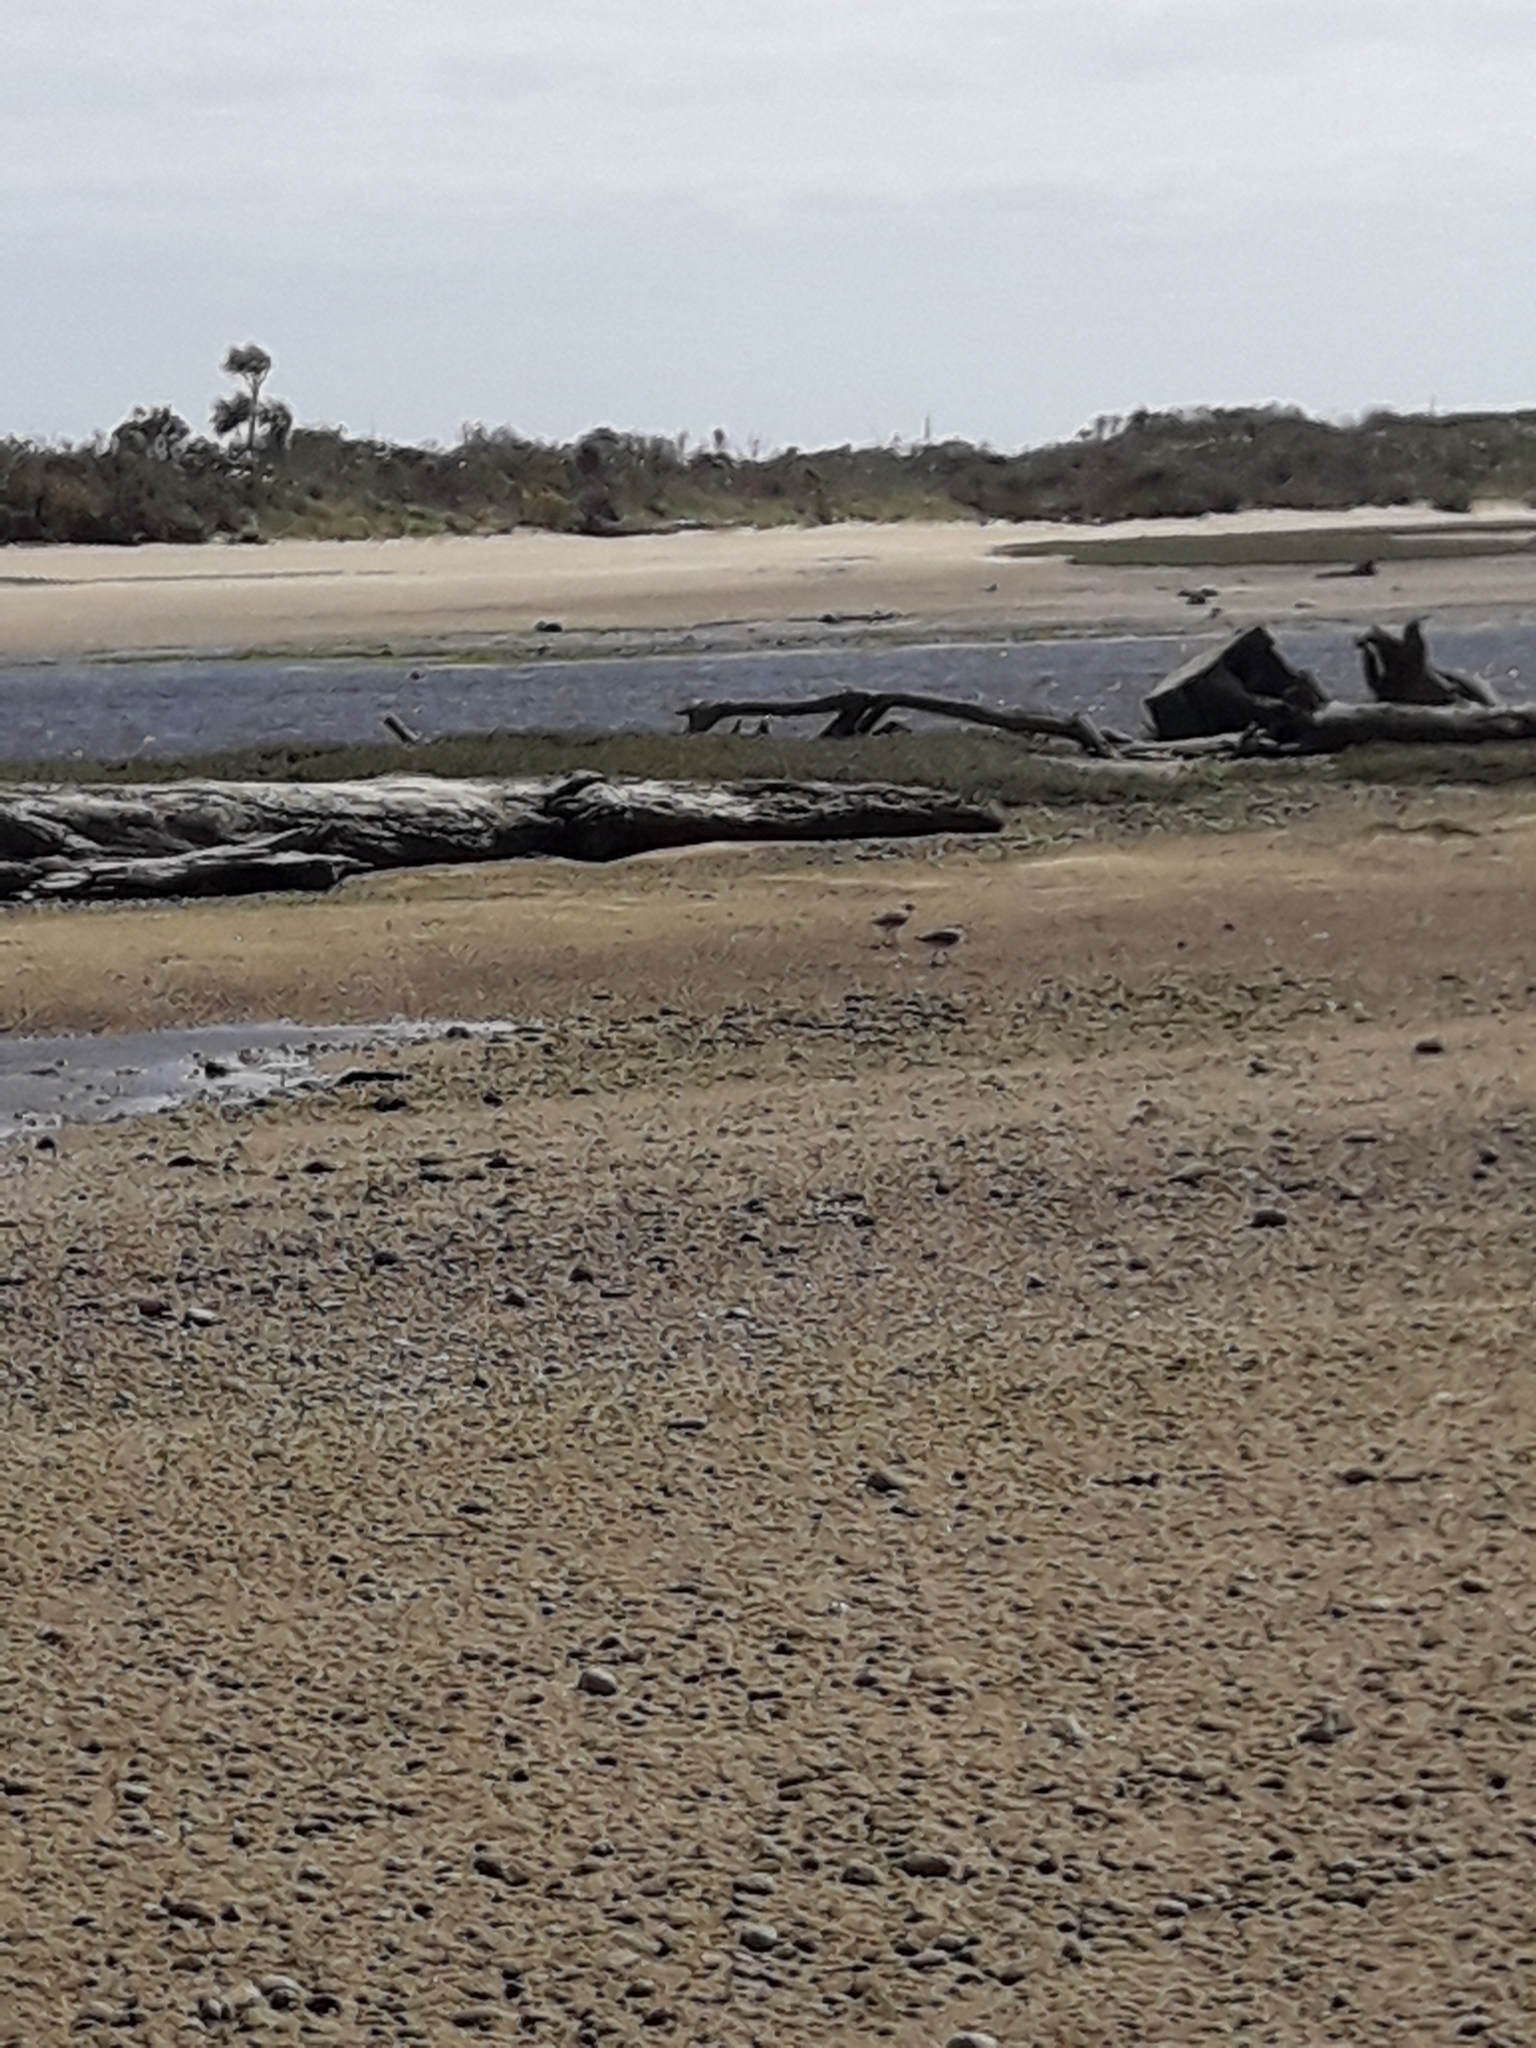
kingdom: Animalia
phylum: Chordata
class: Aves
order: Charadriiformes
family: Scolopacidae
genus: Limosa
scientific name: Limosa lapponica
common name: Bar-tailed godwit
